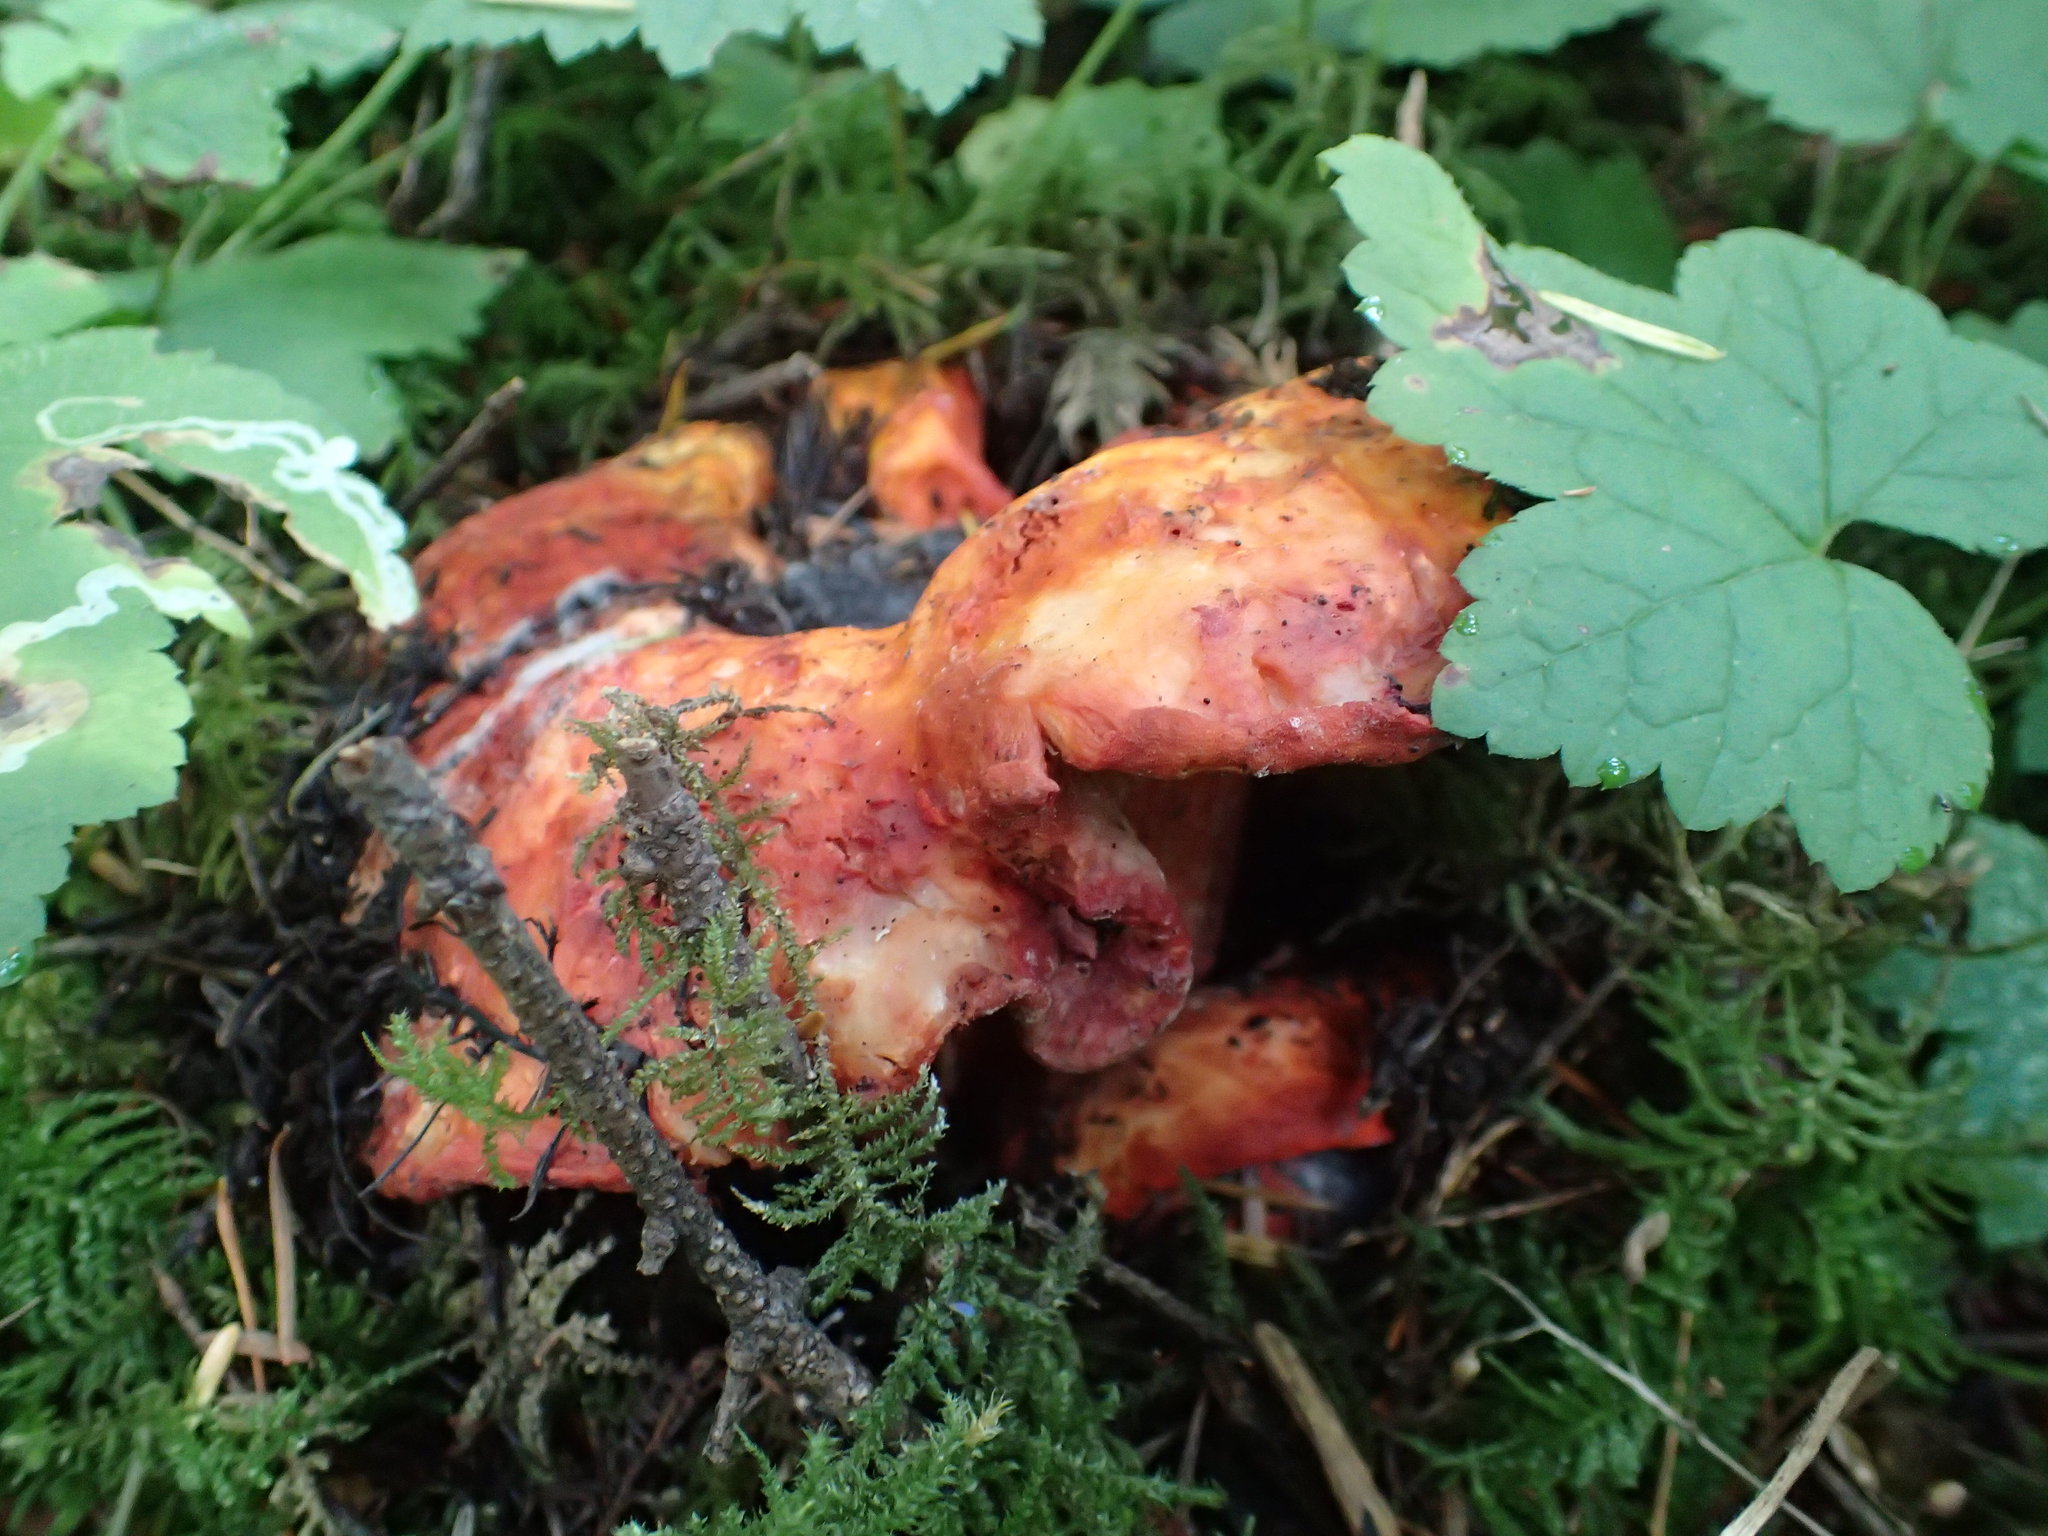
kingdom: Fungi
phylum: Ascomycota
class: Sordariomycetes
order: Hypocreales
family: Hypocreaceae
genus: Hypomyces
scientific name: Hypomyces lactifluorum
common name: Lobster mushroom
